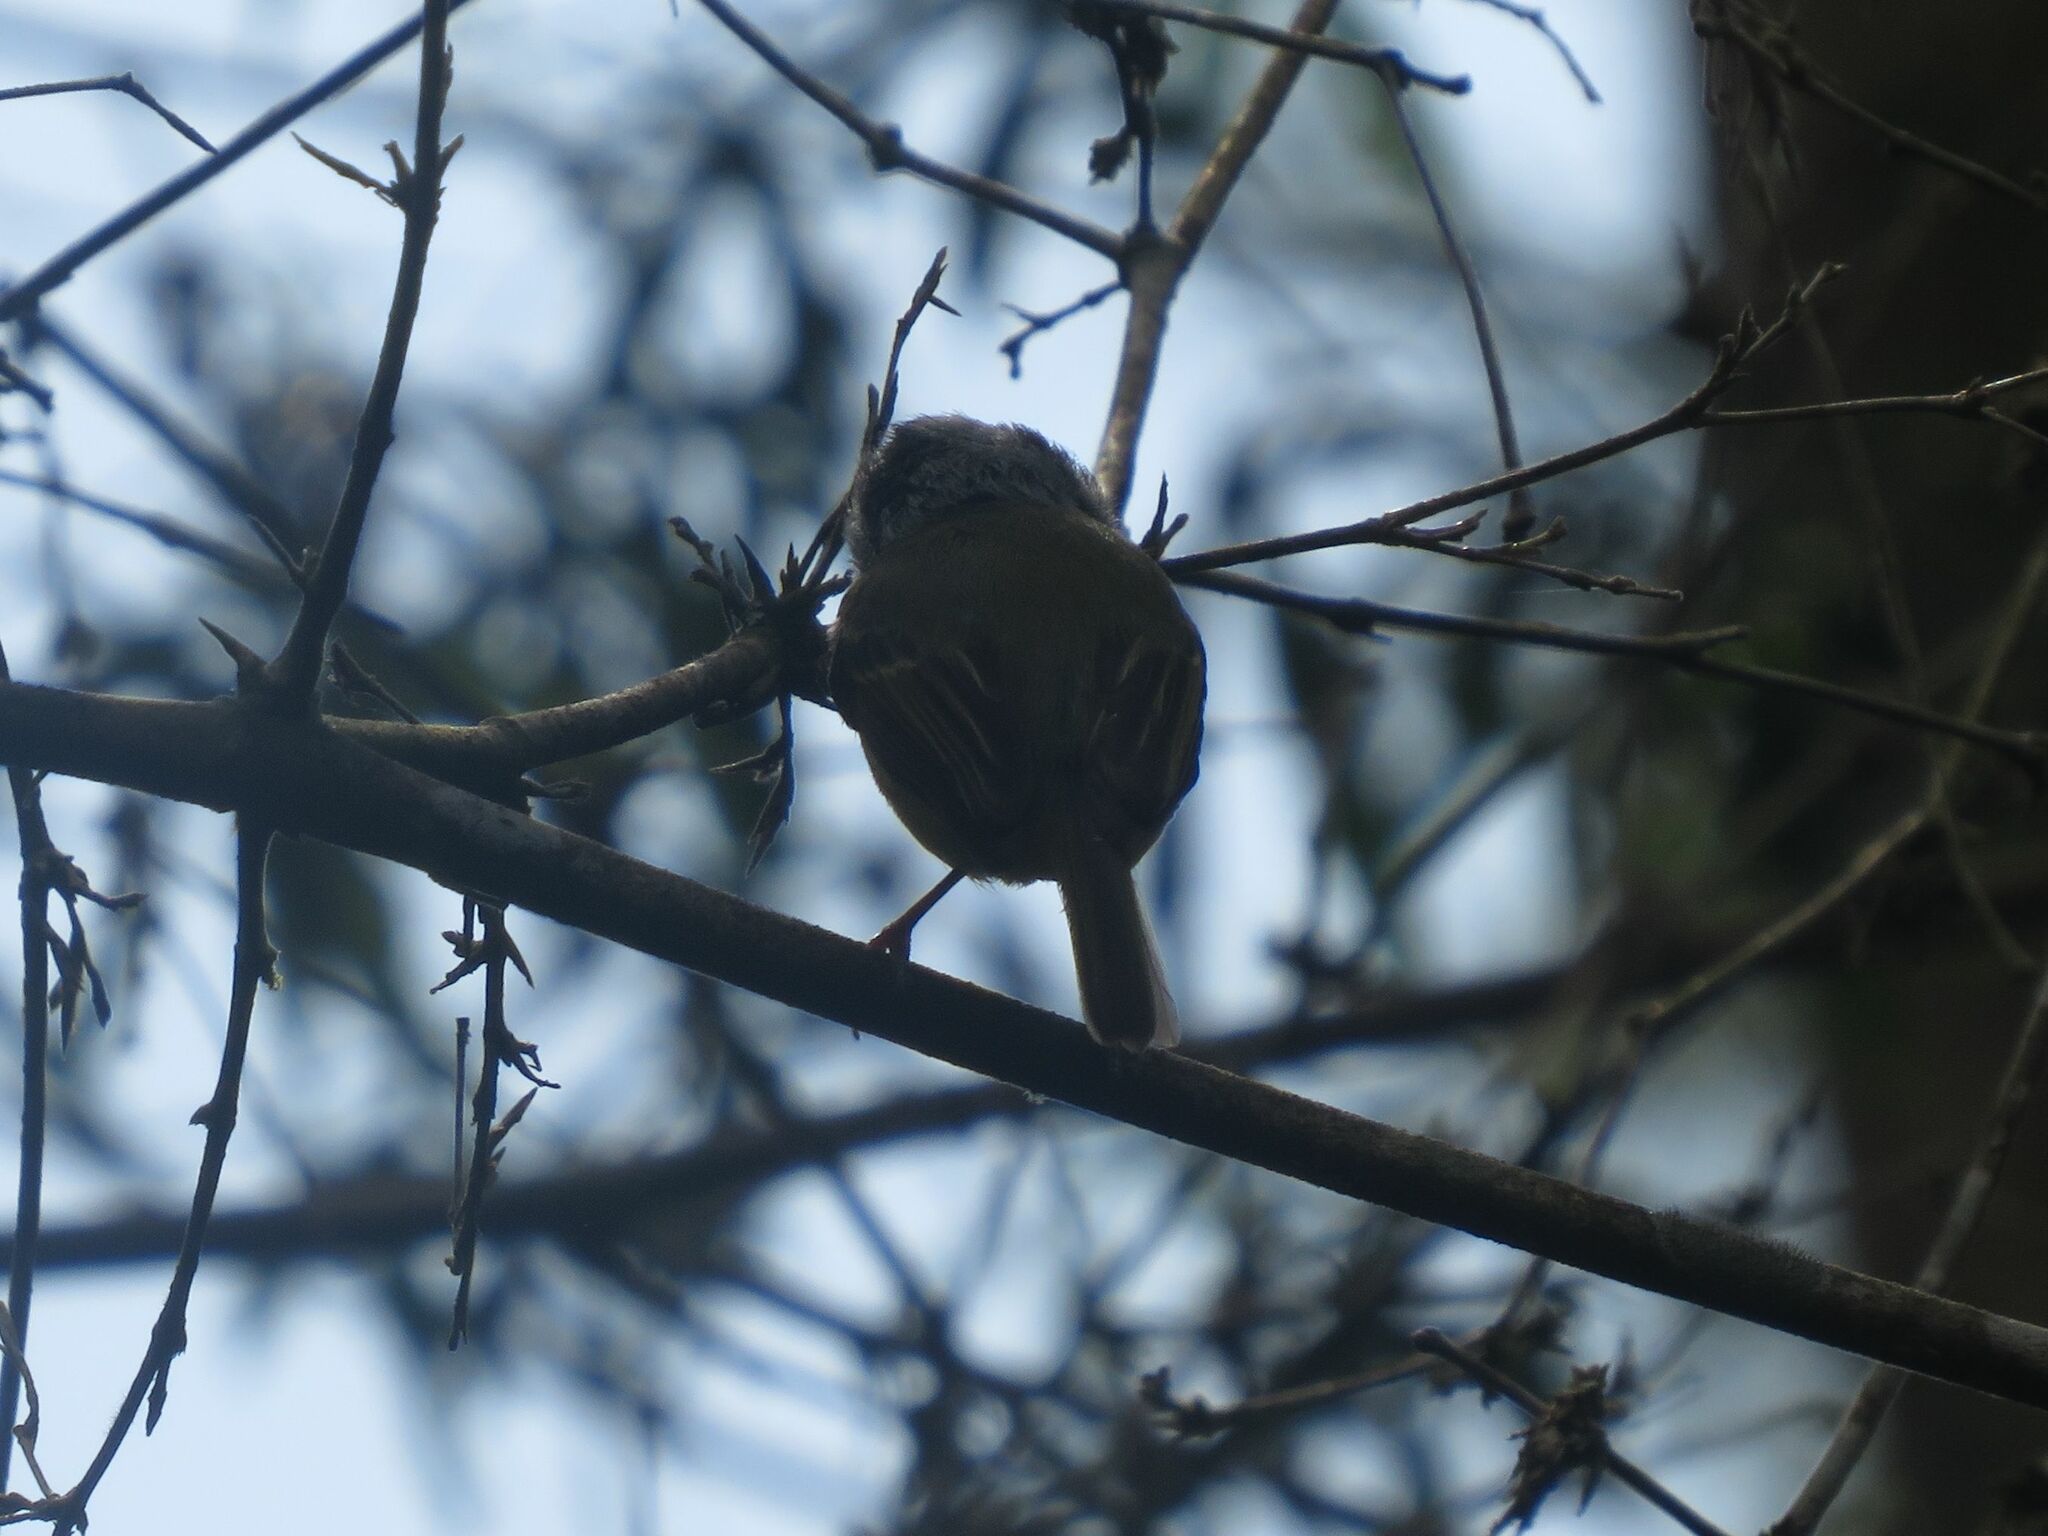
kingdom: Animalia
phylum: Chordata
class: Aves
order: Passeriformes
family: Tyrannidae
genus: Myiornis
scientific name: Myiornis auricularis
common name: Eared pygmy tyrant
